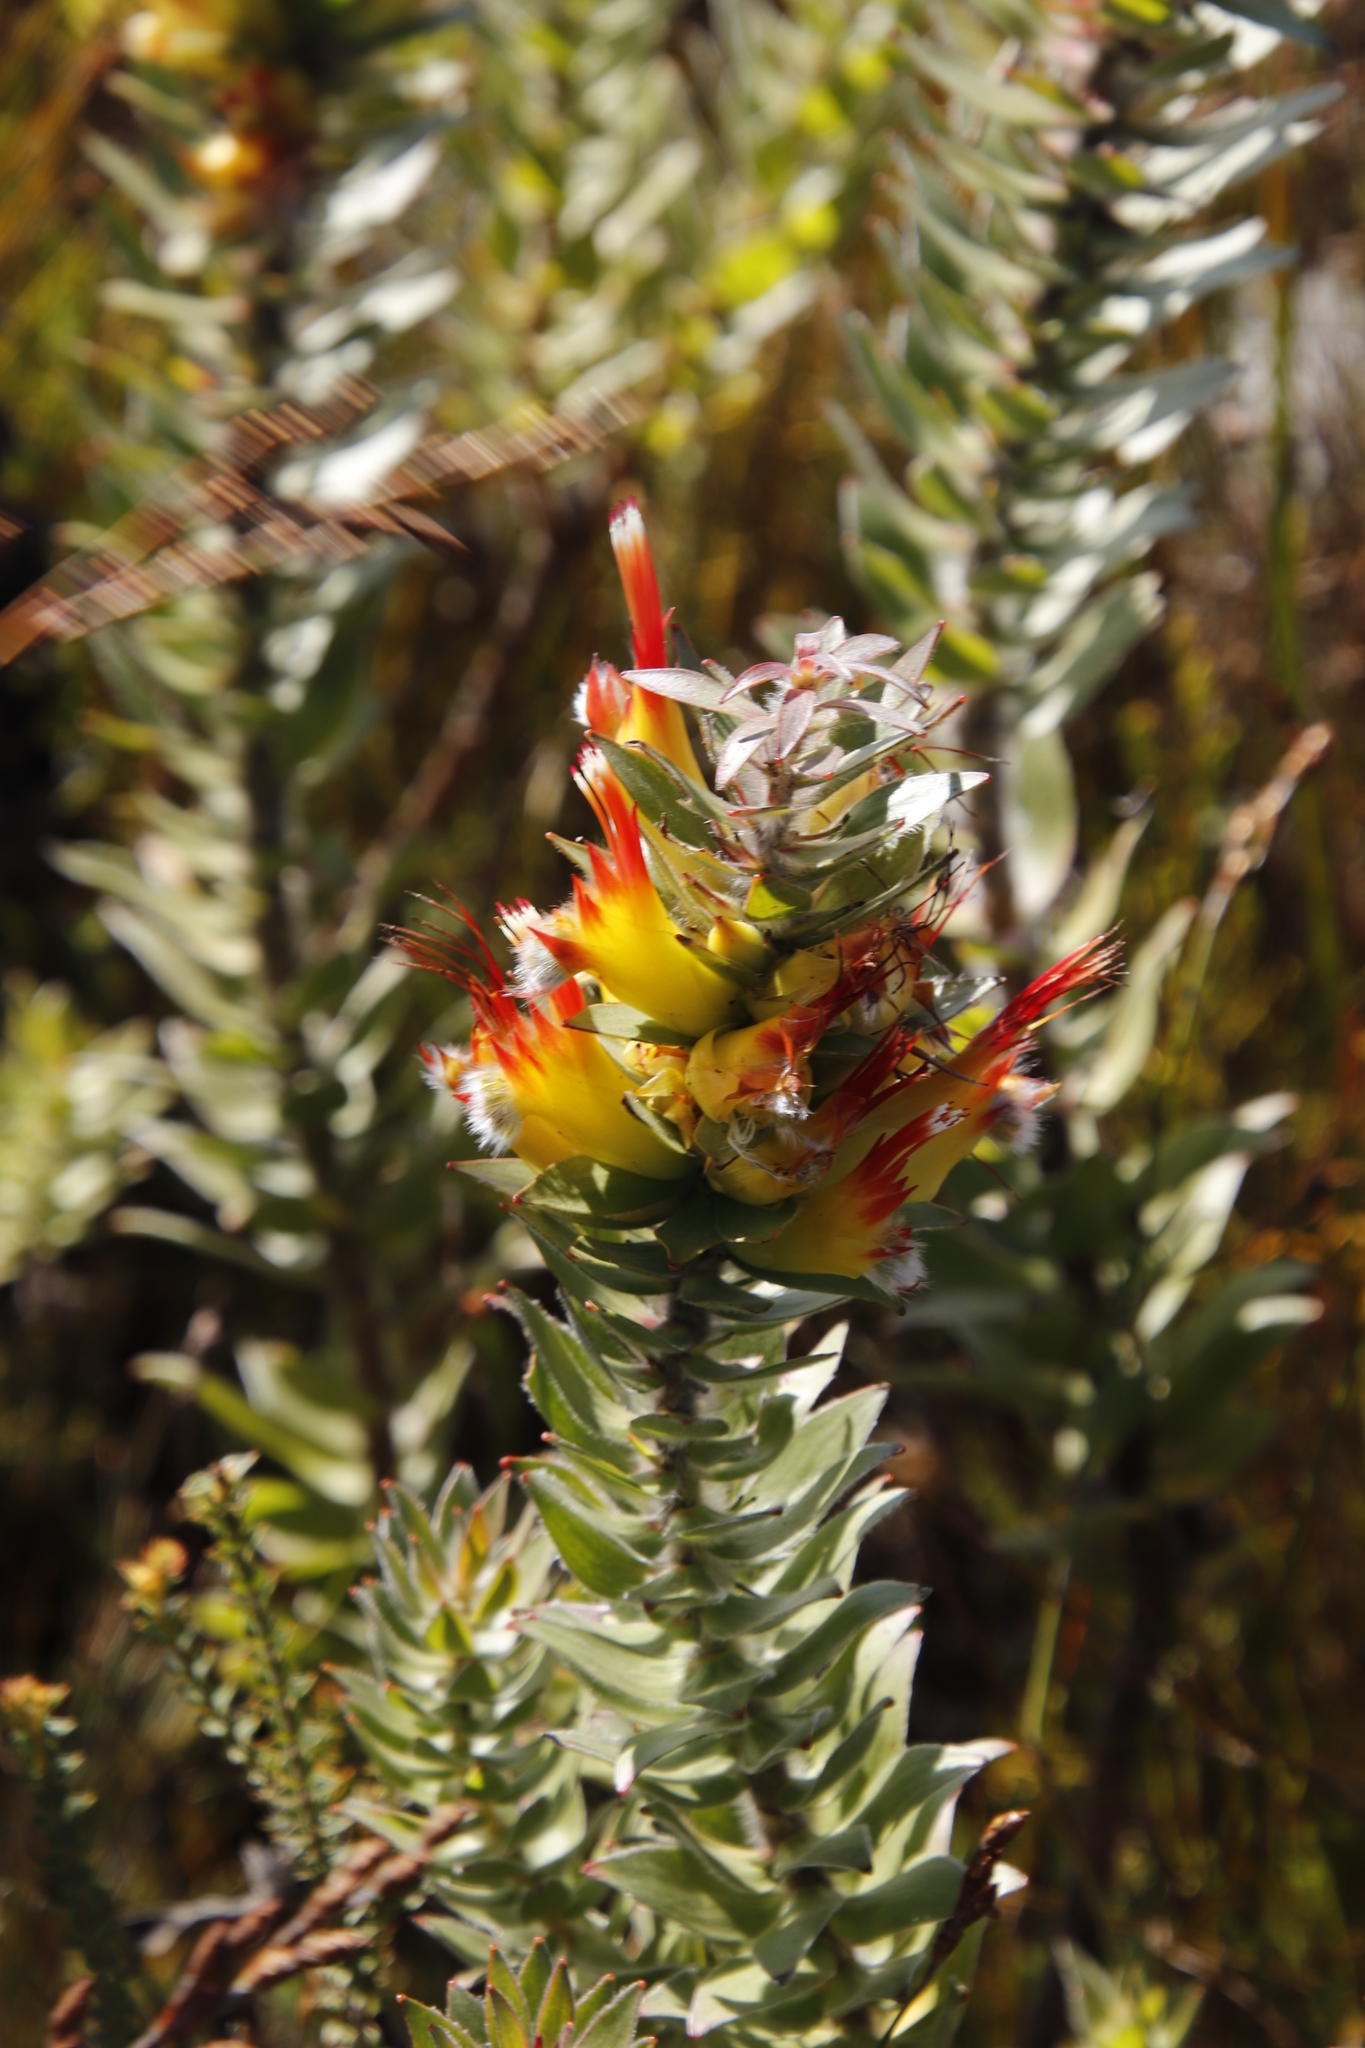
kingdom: Plantae
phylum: Tracheophyta
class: Magnoliopsida
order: Proteales
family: Proteaceae
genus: Mimetes
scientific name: Mimetes hirtus
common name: Marsh pagoda
